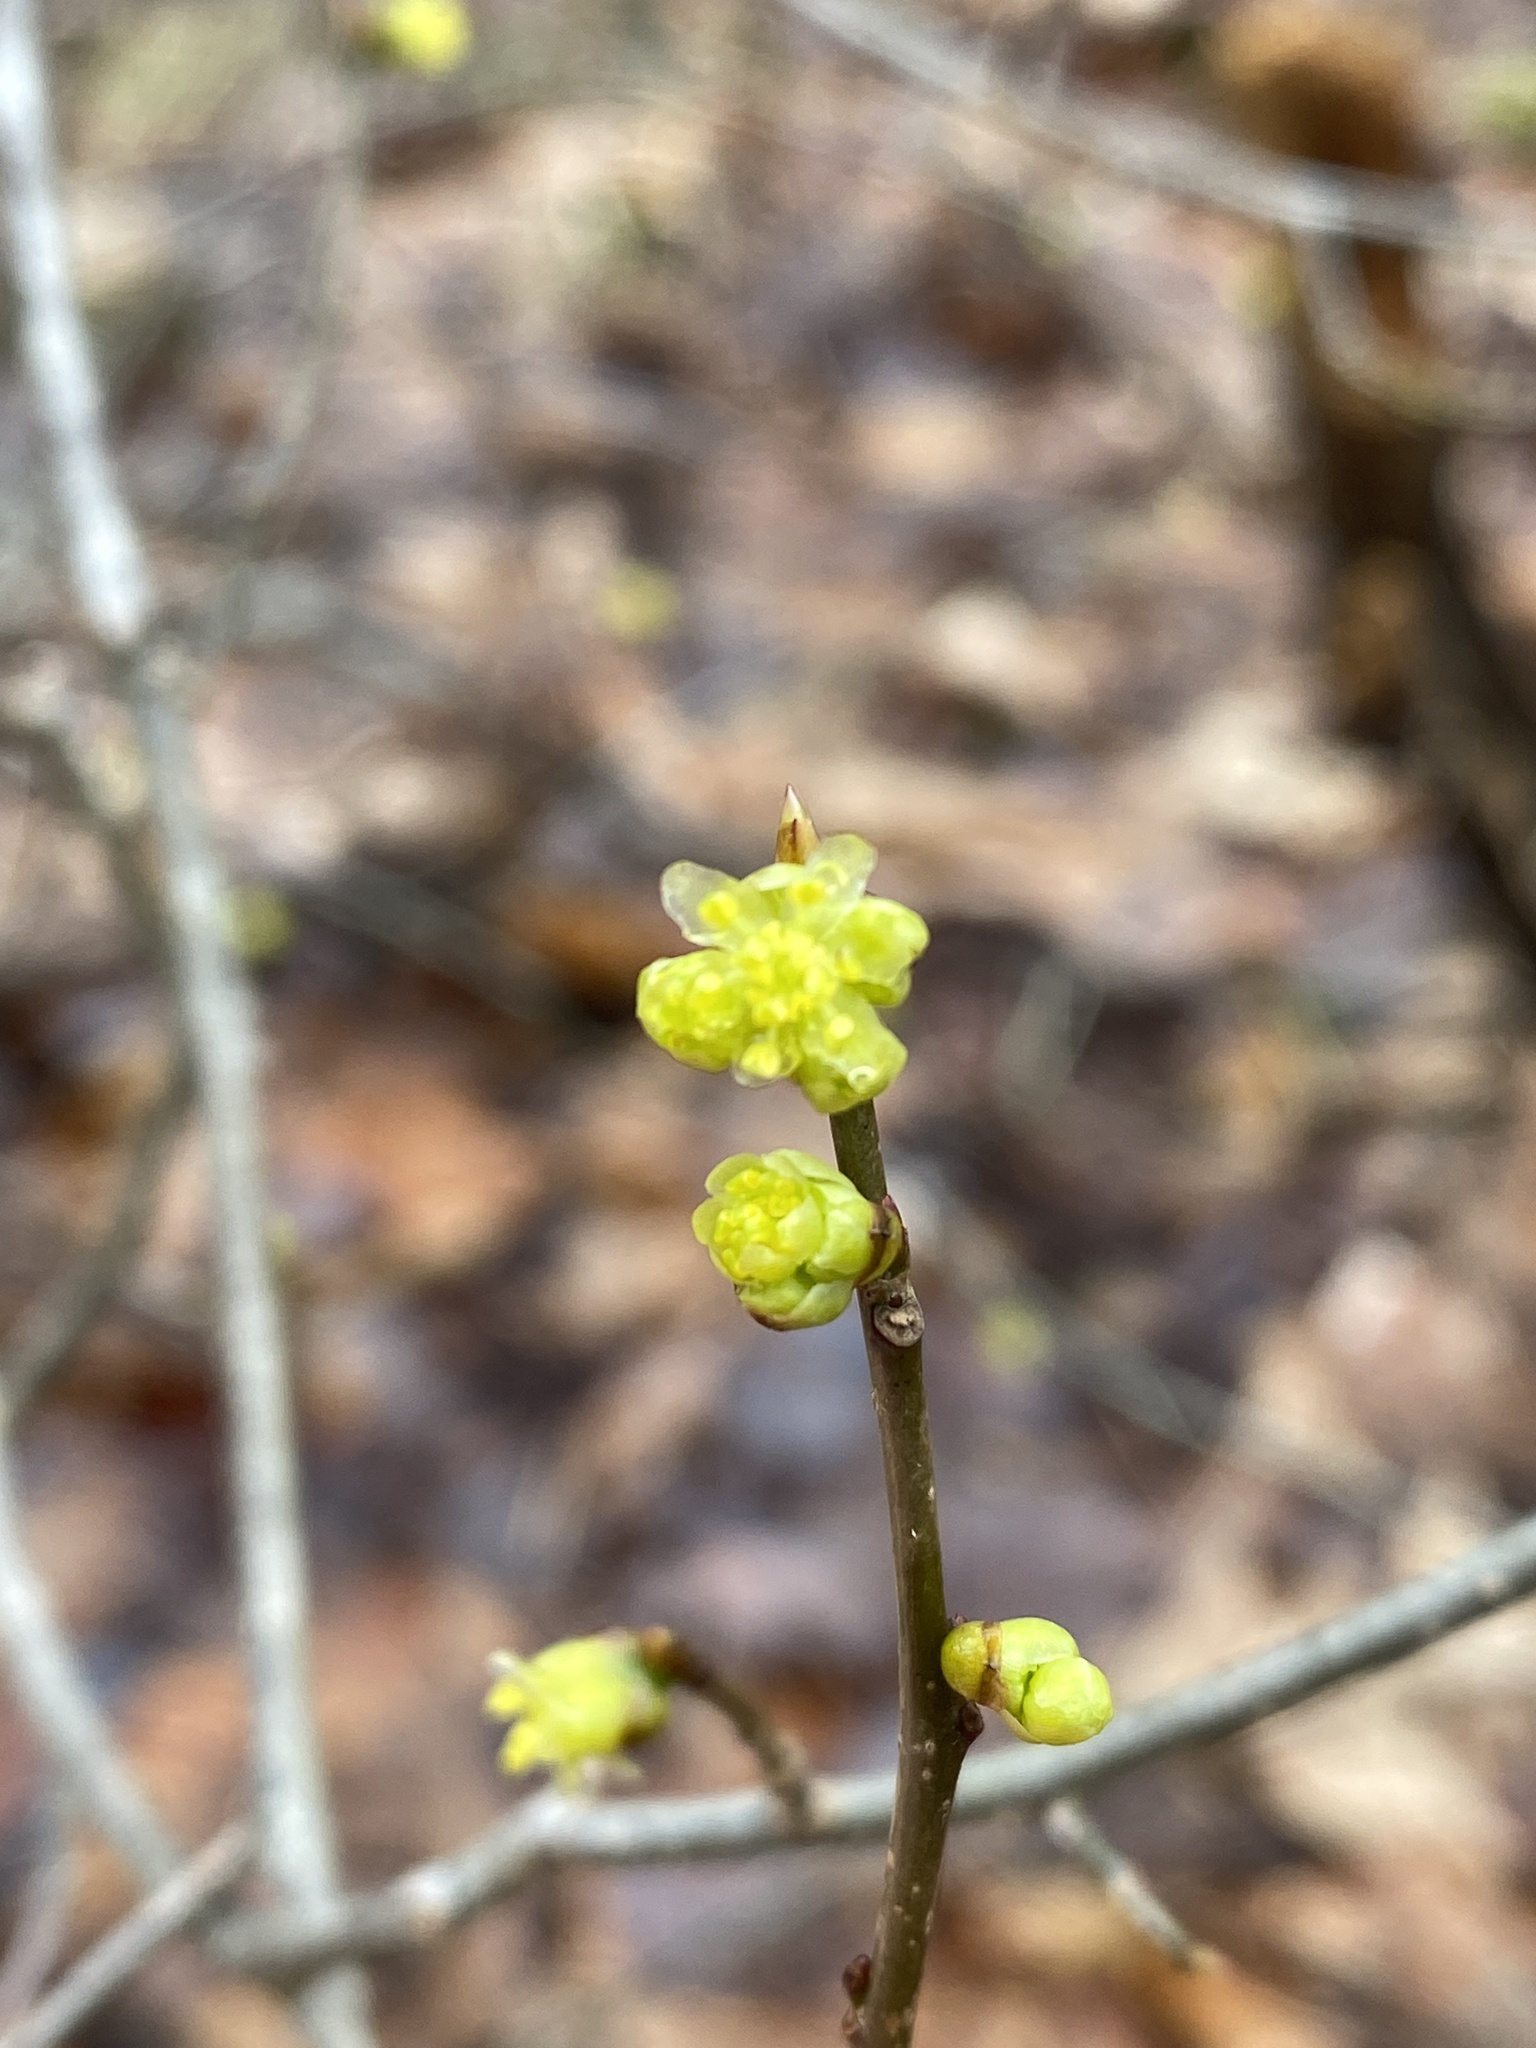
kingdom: Plantae
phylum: Tracheophyta
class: Magnoliopsida
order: Laurales
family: Lauraceae
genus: Lindera
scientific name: Lindera benzoin
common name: Spicebush
